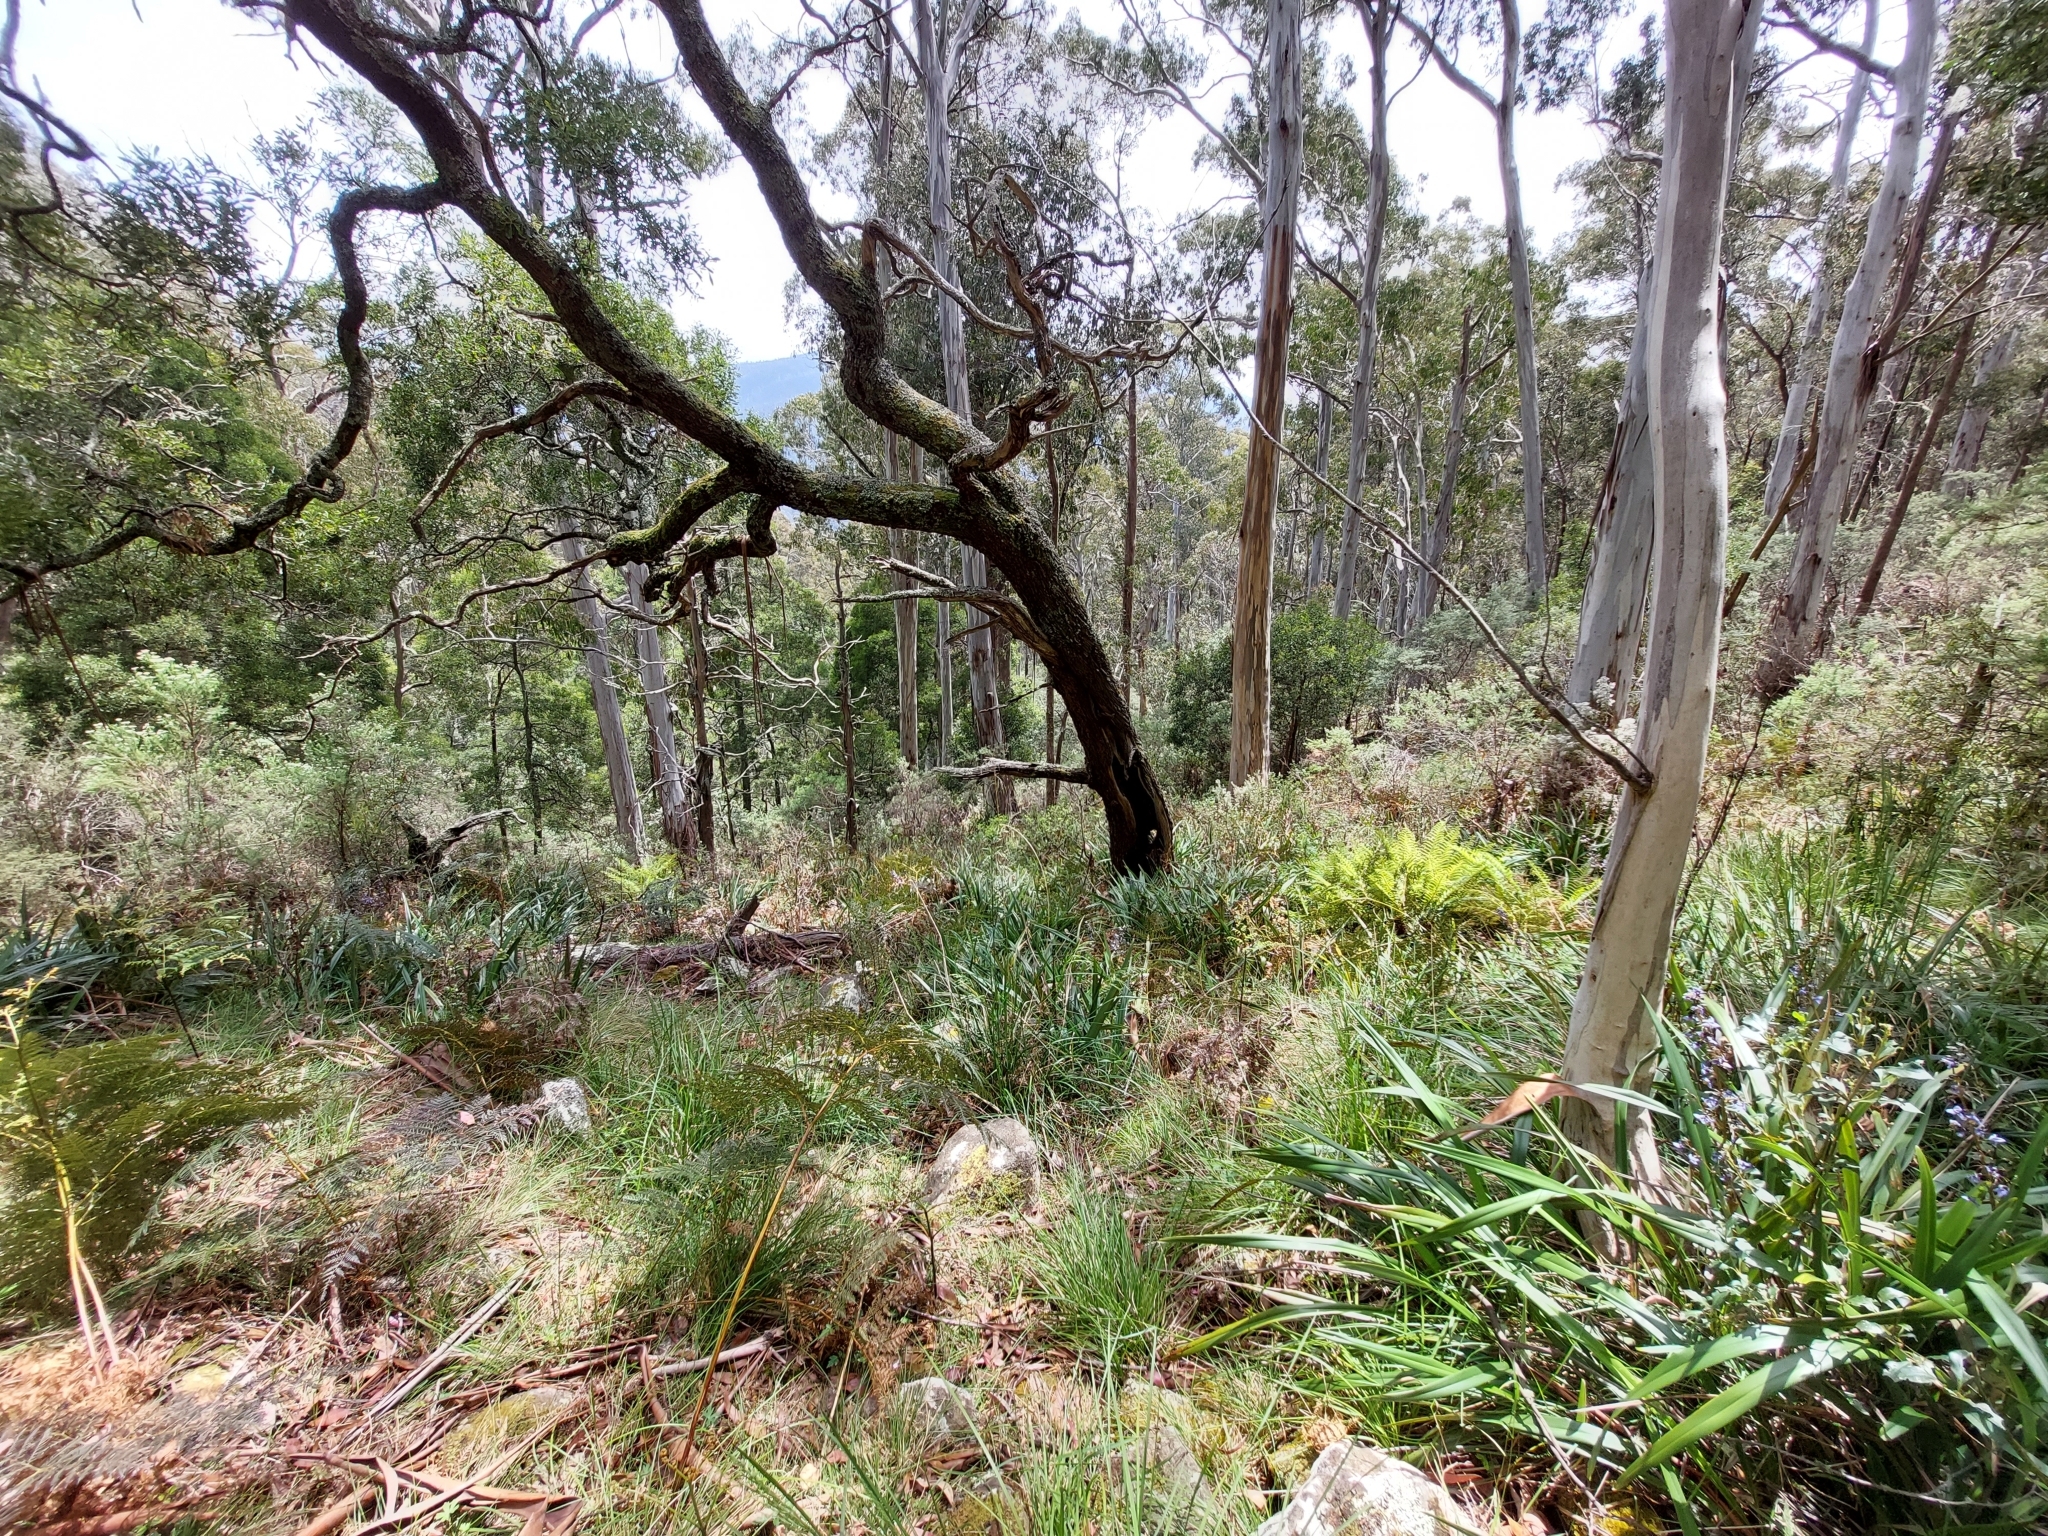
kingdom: Plantae
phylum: Tracheophyta
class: Liliopsida
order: Asparagales
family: Asphodelaceae
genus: Dianella
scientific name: Dianella tasmanica
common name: Tasman flax-lily
